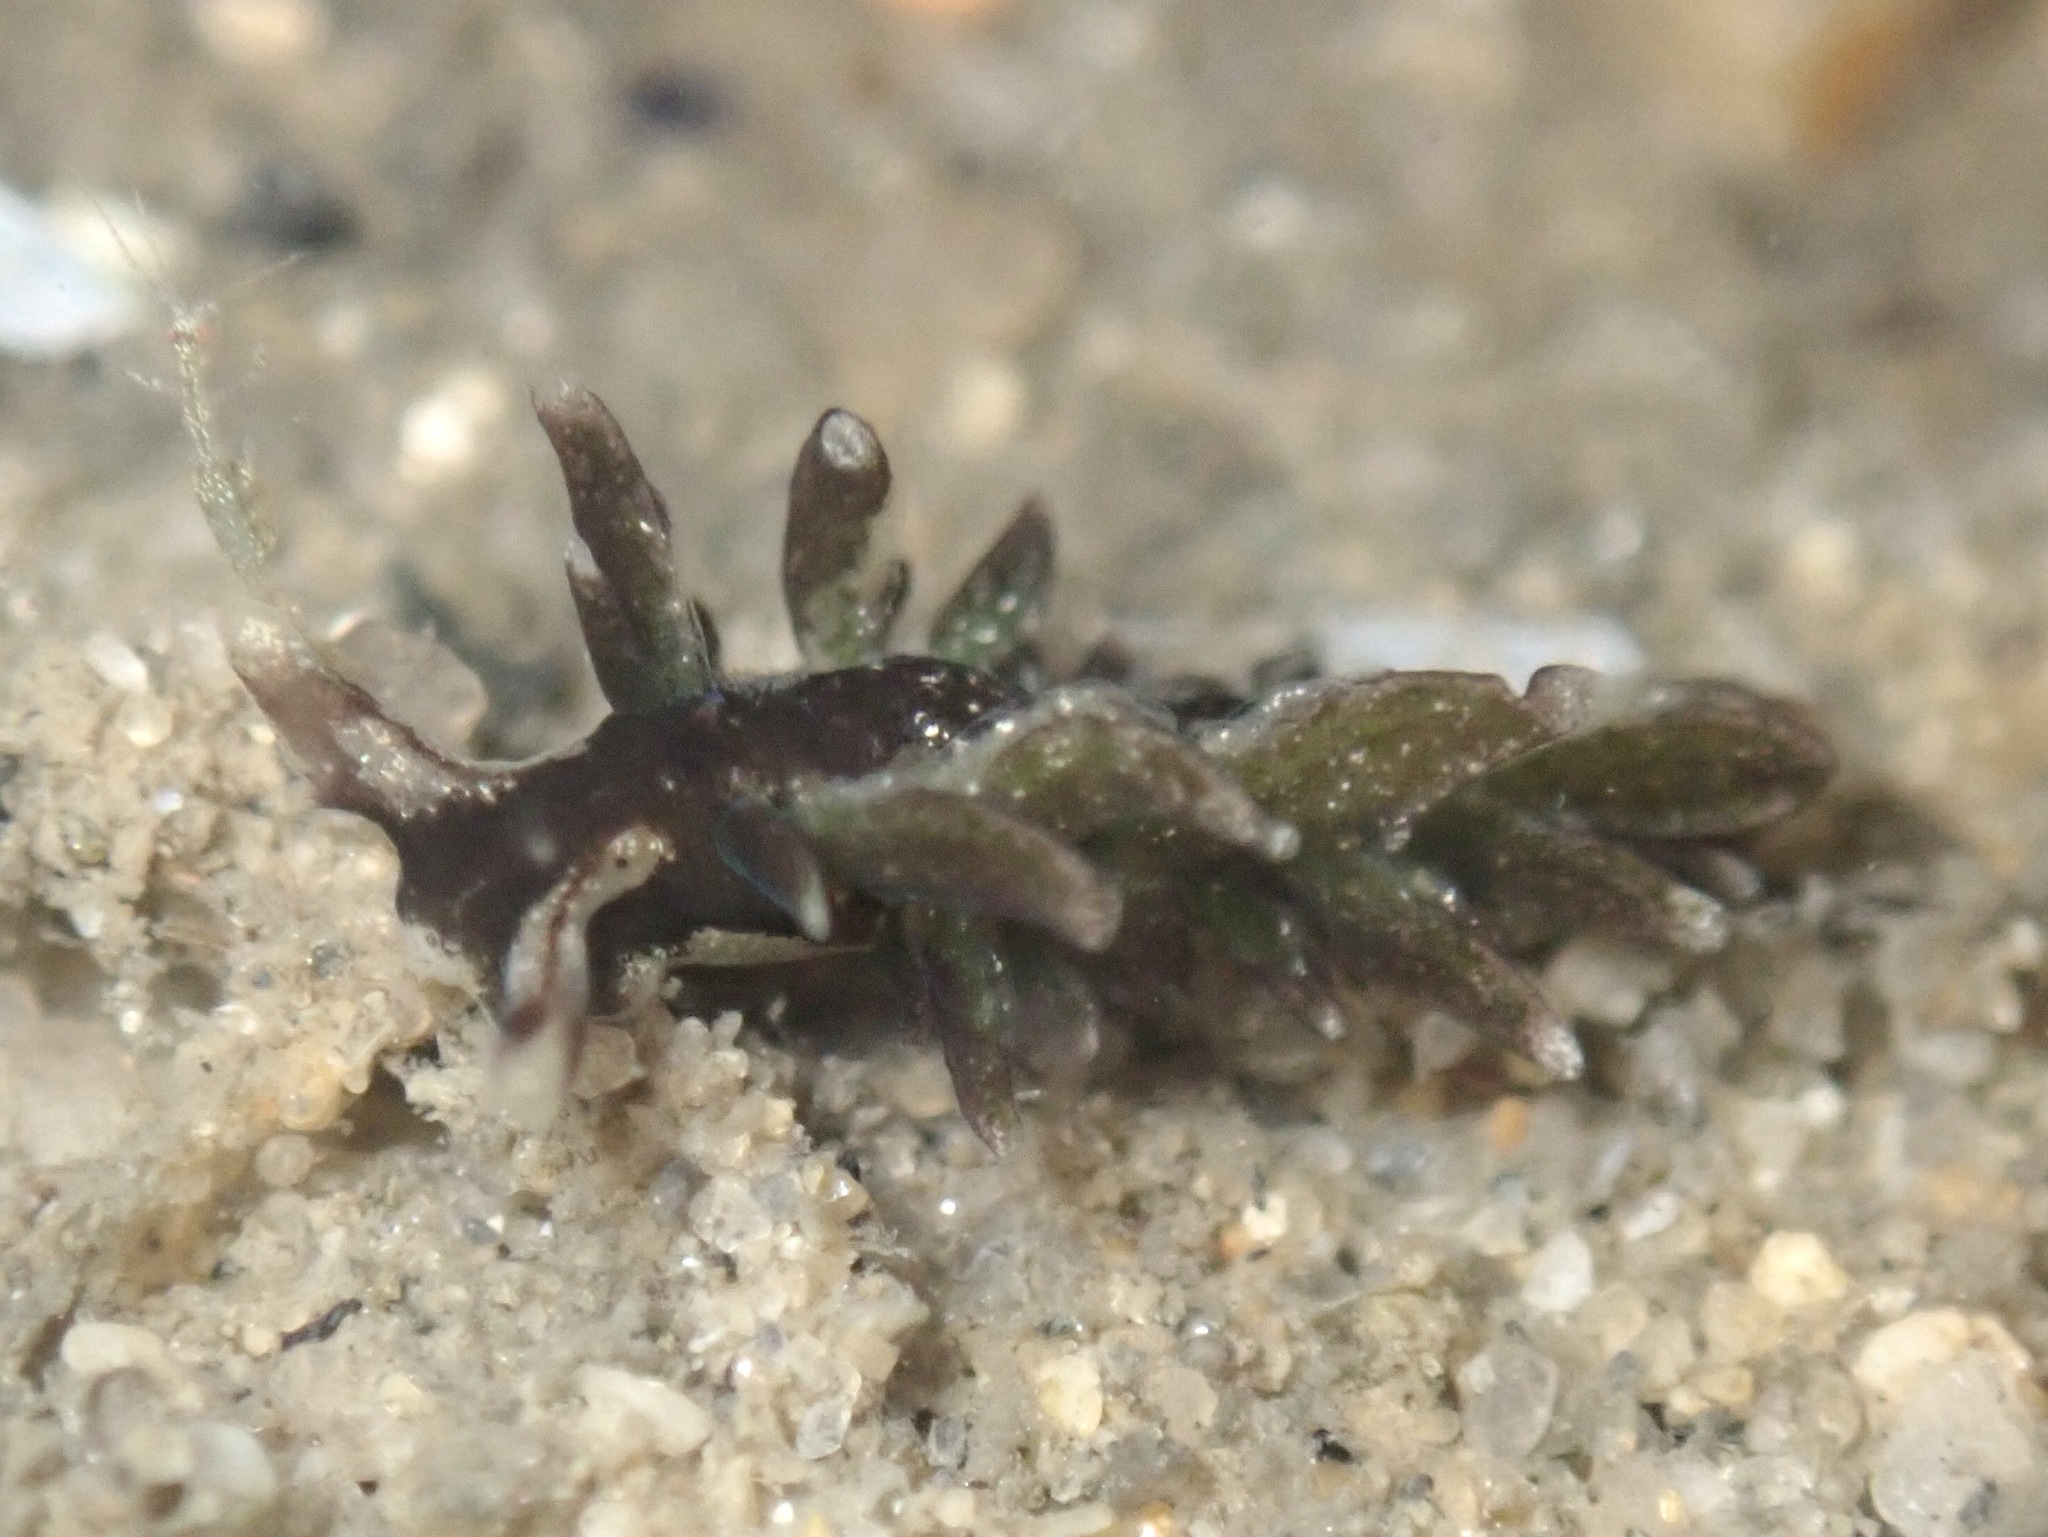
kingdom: Animalia
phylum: Mollusca
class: Gastropoda
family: Hermaeidae
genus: Aplysiopsis
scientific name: Aplysiopsis enteromorphae
